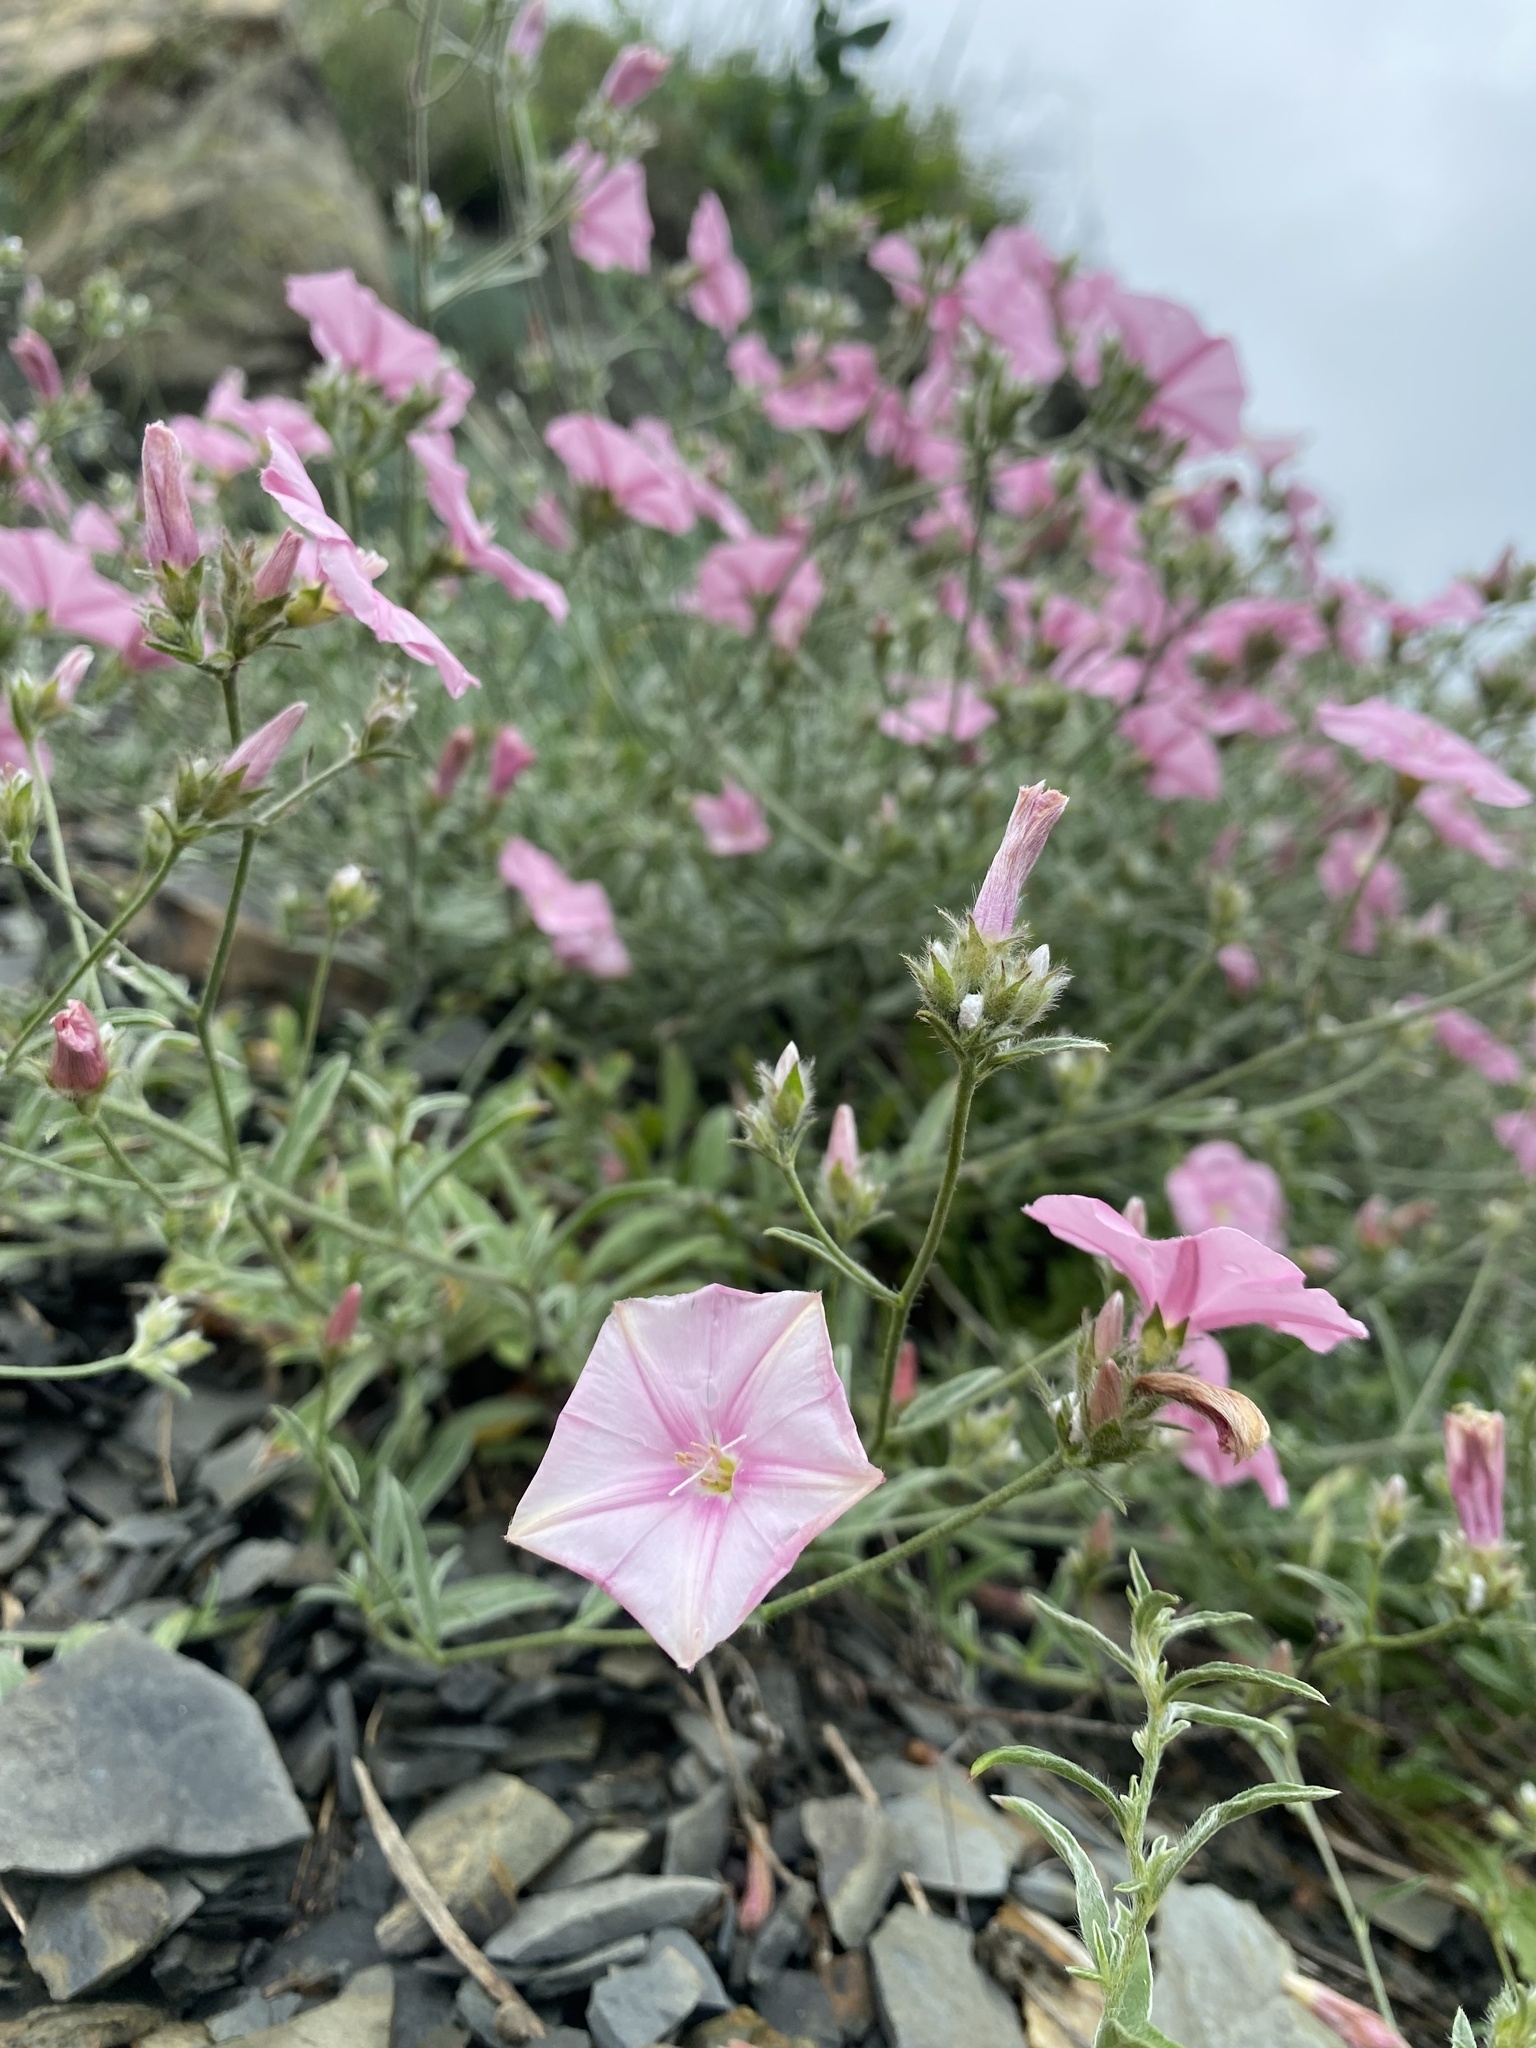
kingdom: Plantae
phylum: Tracheophyta
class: Magnoliopsida
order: Solanales
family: Convolvulaceae
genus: Convolvulus
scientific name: Convolvulus cantabrica
